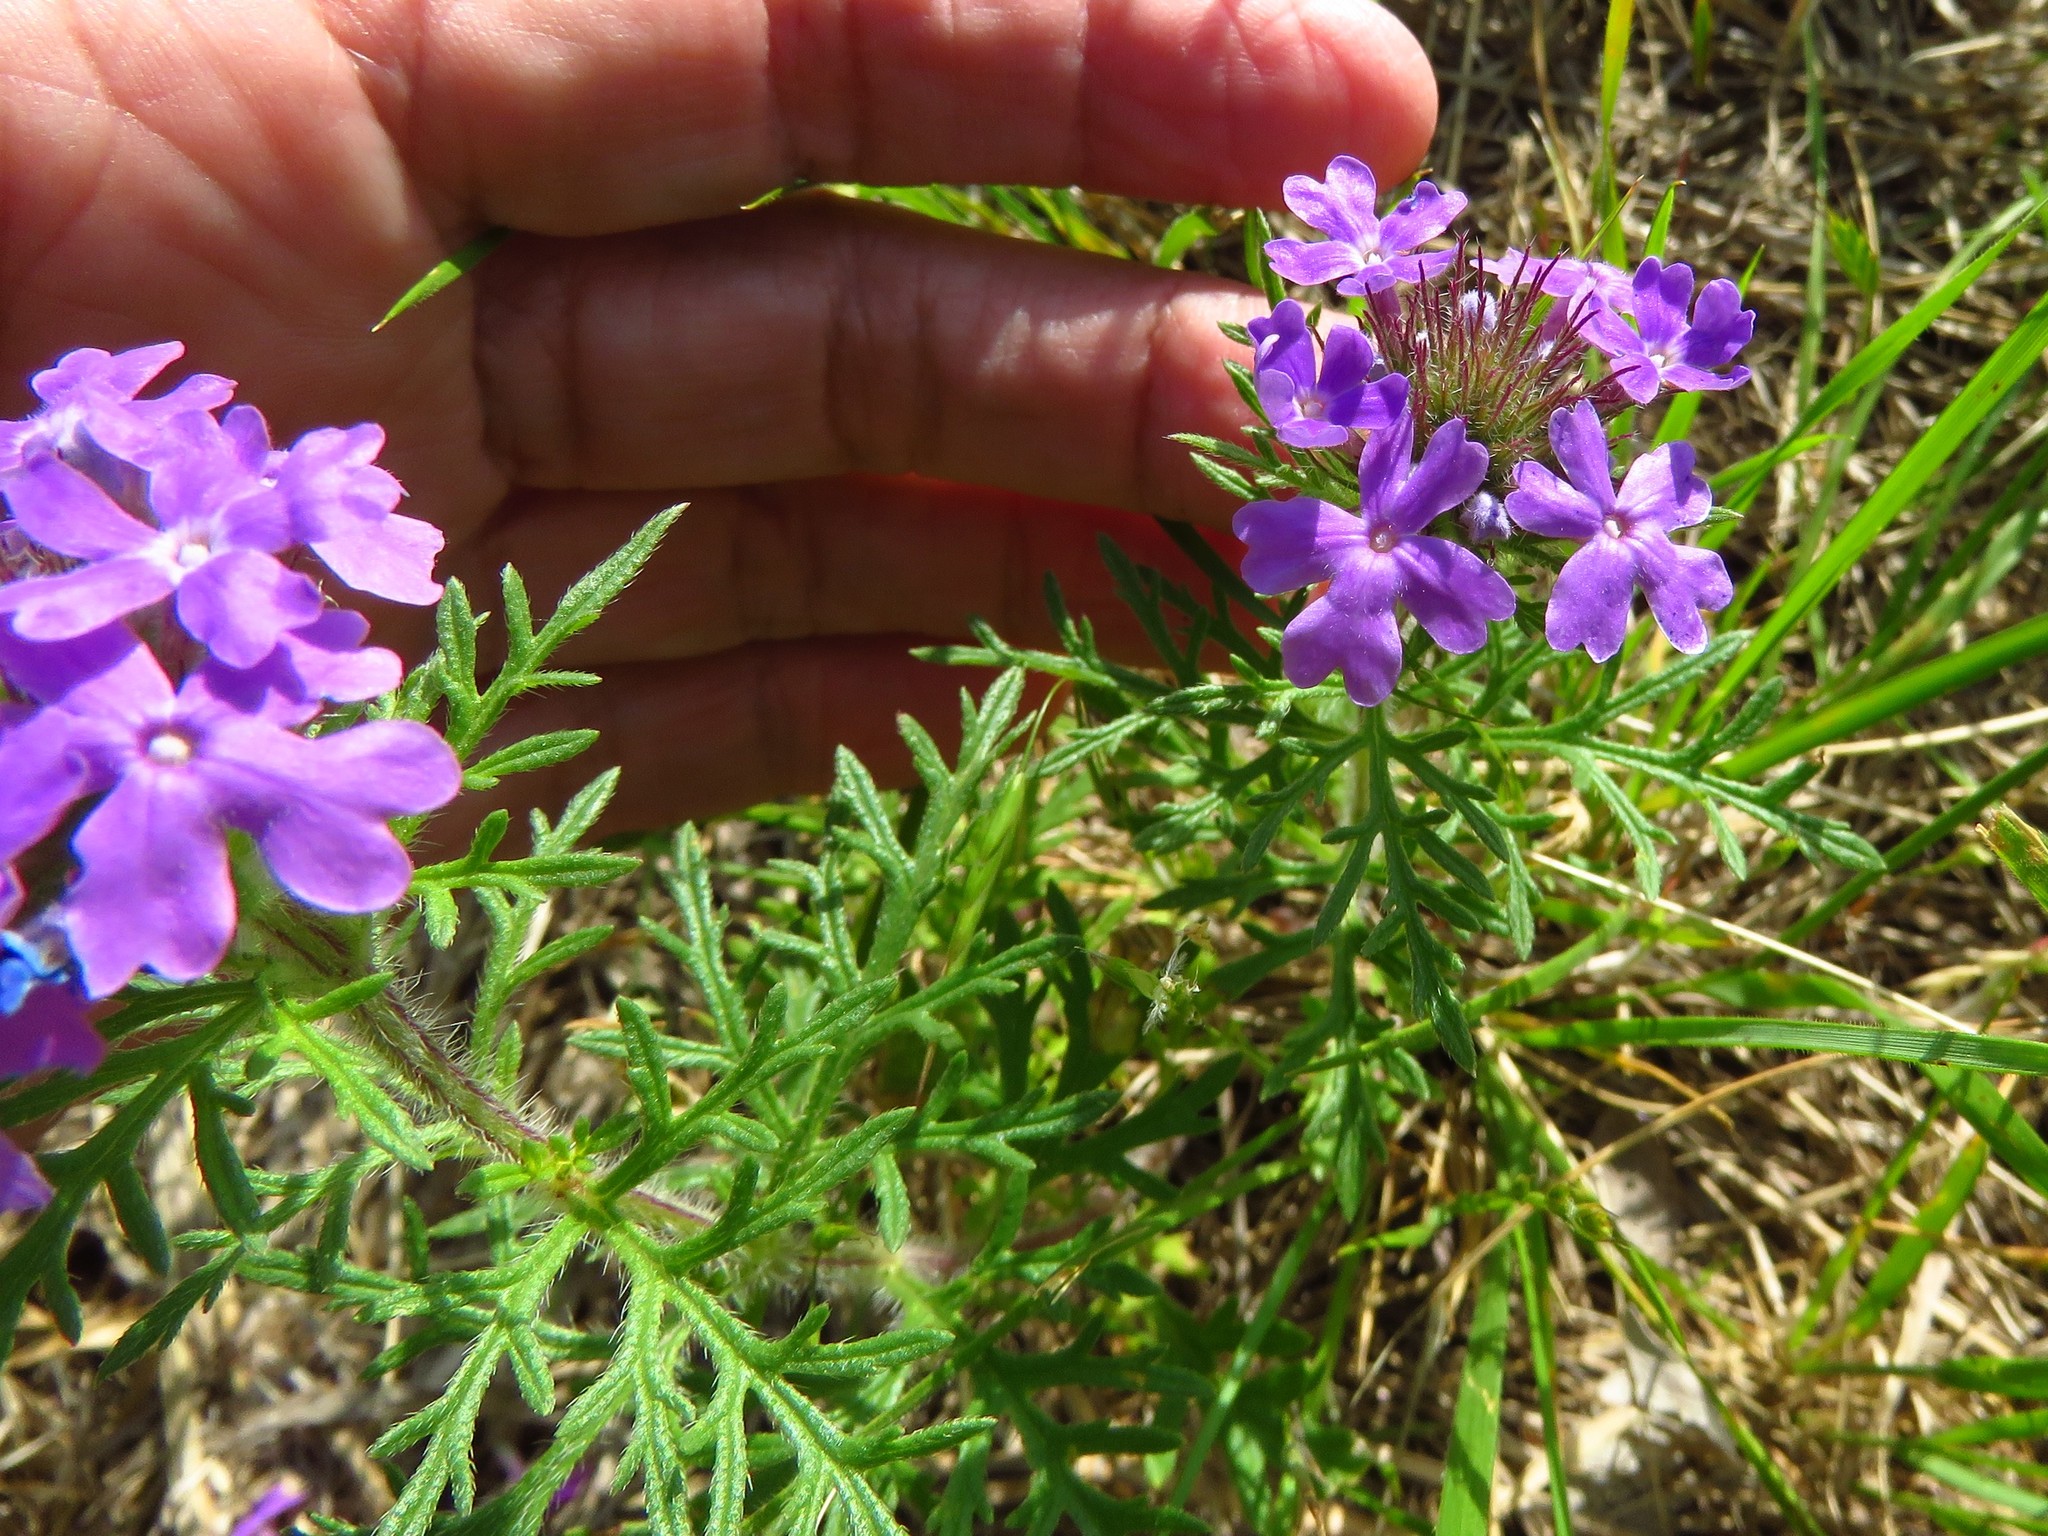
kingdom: Plantae
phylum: Tracheophyta
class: Magnoliopsida
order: Lamiales
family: Verbenaceae
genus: Verbena
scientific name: Verbena bipinnatifida
